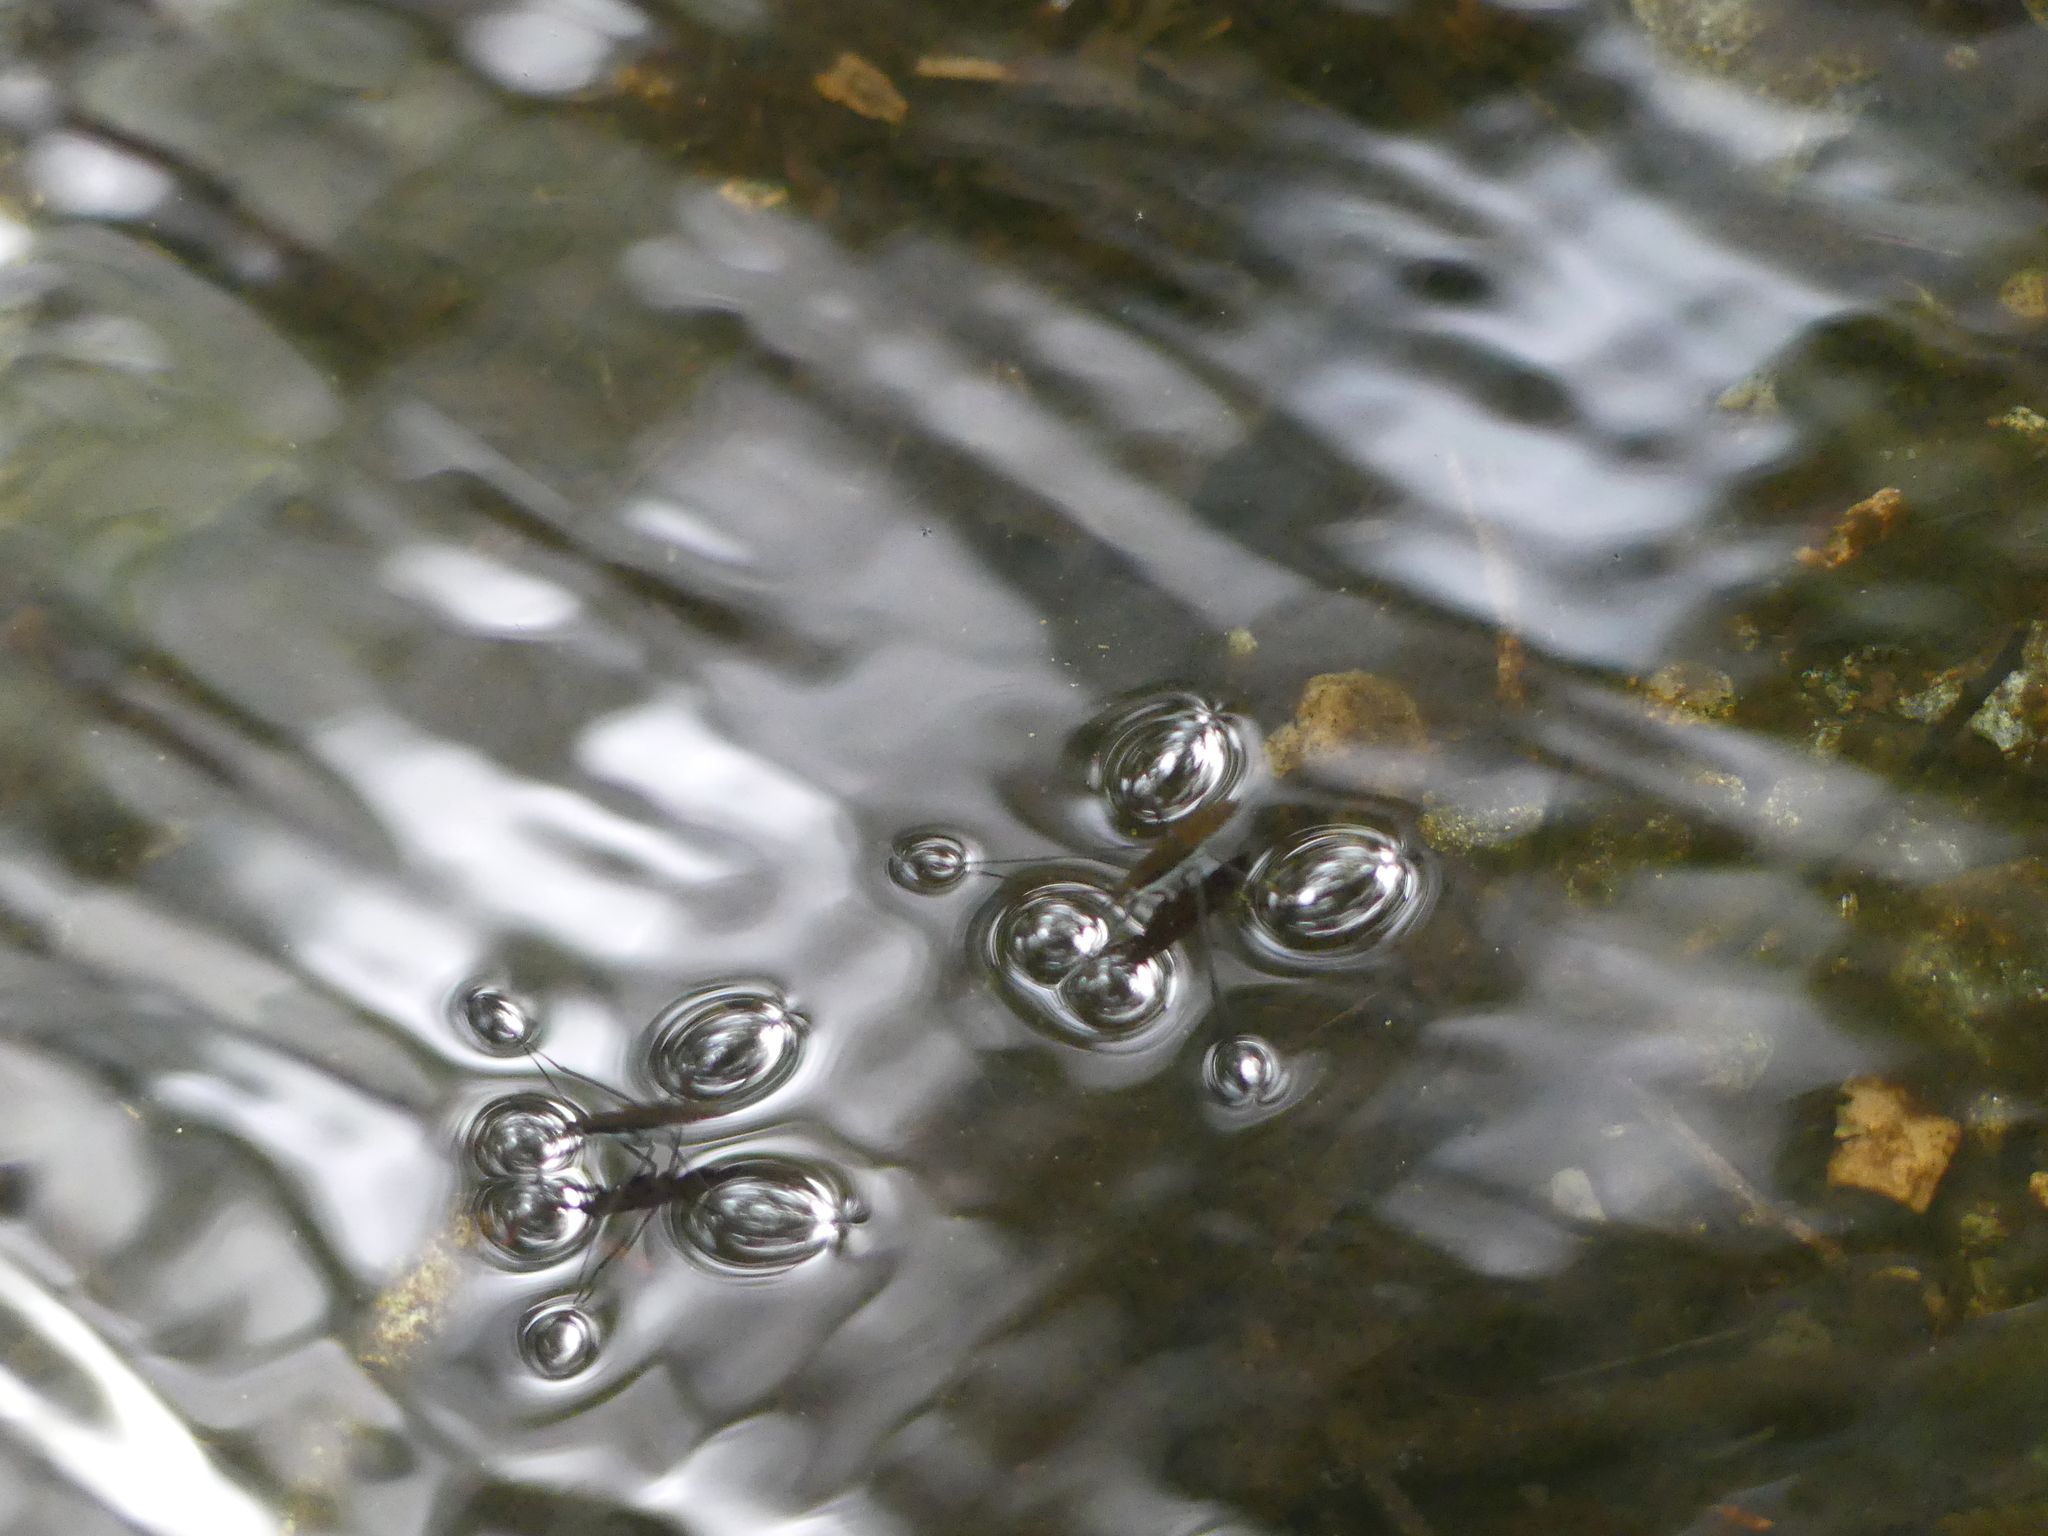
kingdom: Animalia
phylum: Arthropoda
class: Insecta
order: Hemiptera
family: Gerridae
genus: Aquarius
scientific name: Aquarius remigis
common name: Common water strider
